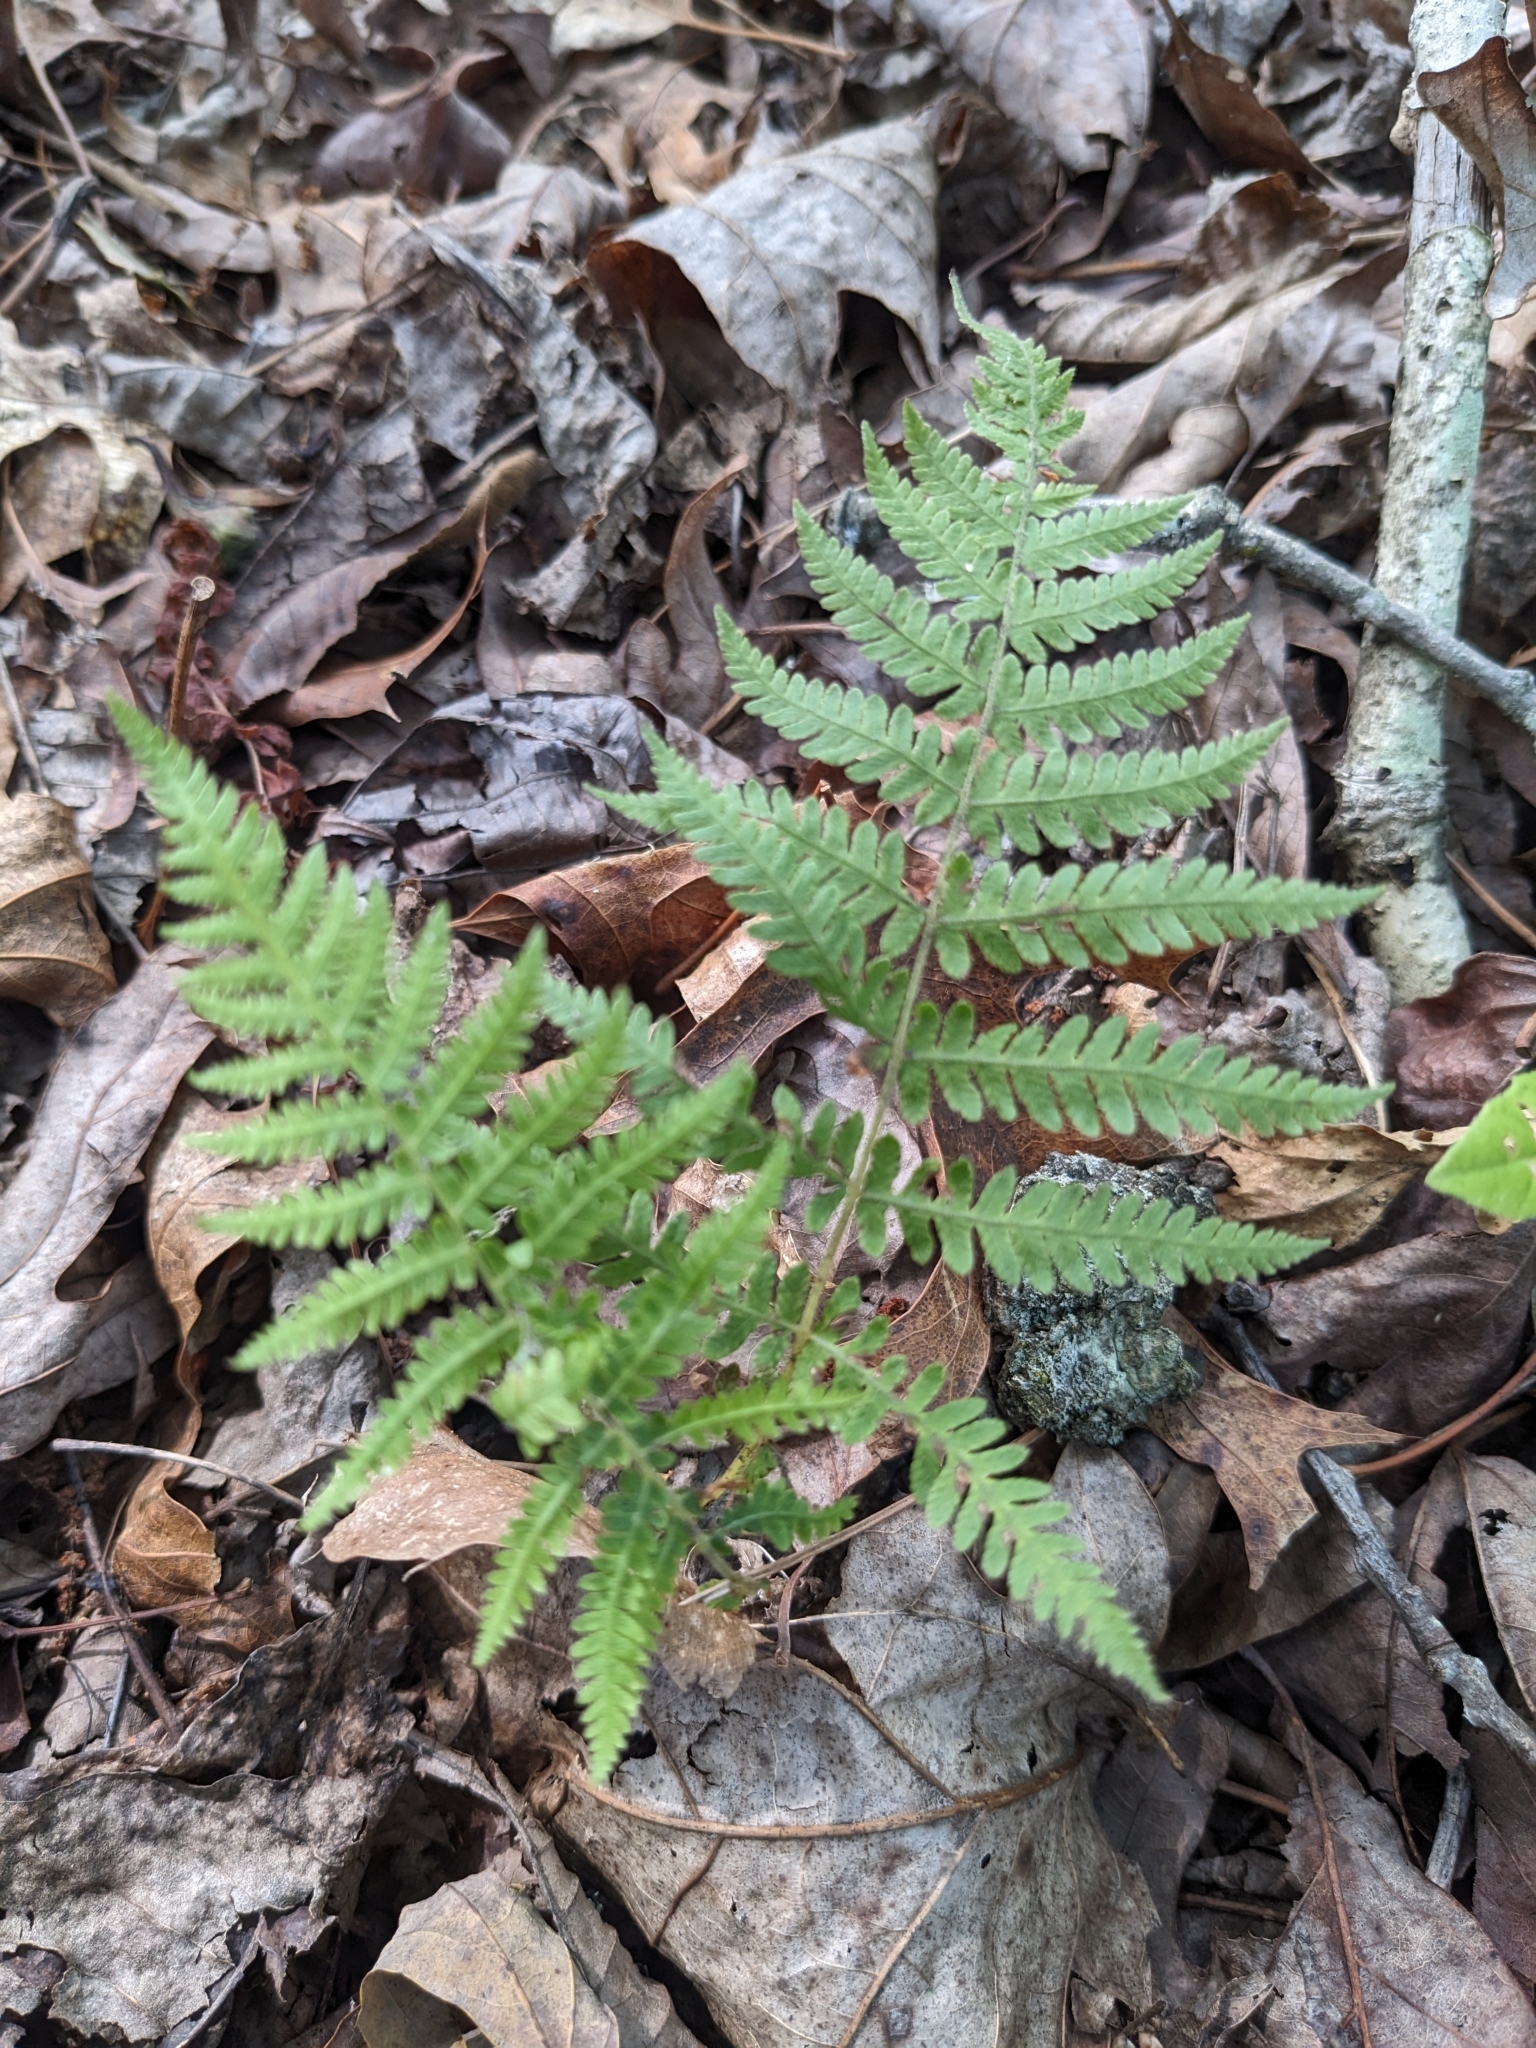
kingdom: Plantae
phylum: Tracheophyta
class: Polypodiopsida
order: Polypodiales
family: Thelypteridaceae
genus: Amauropelta
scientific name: Amauropelta noveboracensis
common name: New york fern
